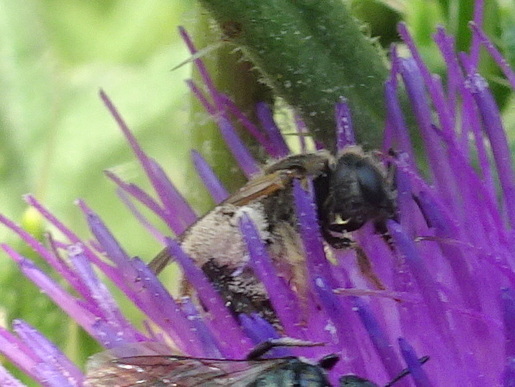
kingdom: Animalia
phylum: Arthropoda
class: Insecta
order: Hymenoptera
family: Halictidae
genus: Halictus
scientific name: Halictus ligatus
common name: Ligated furrow bee
